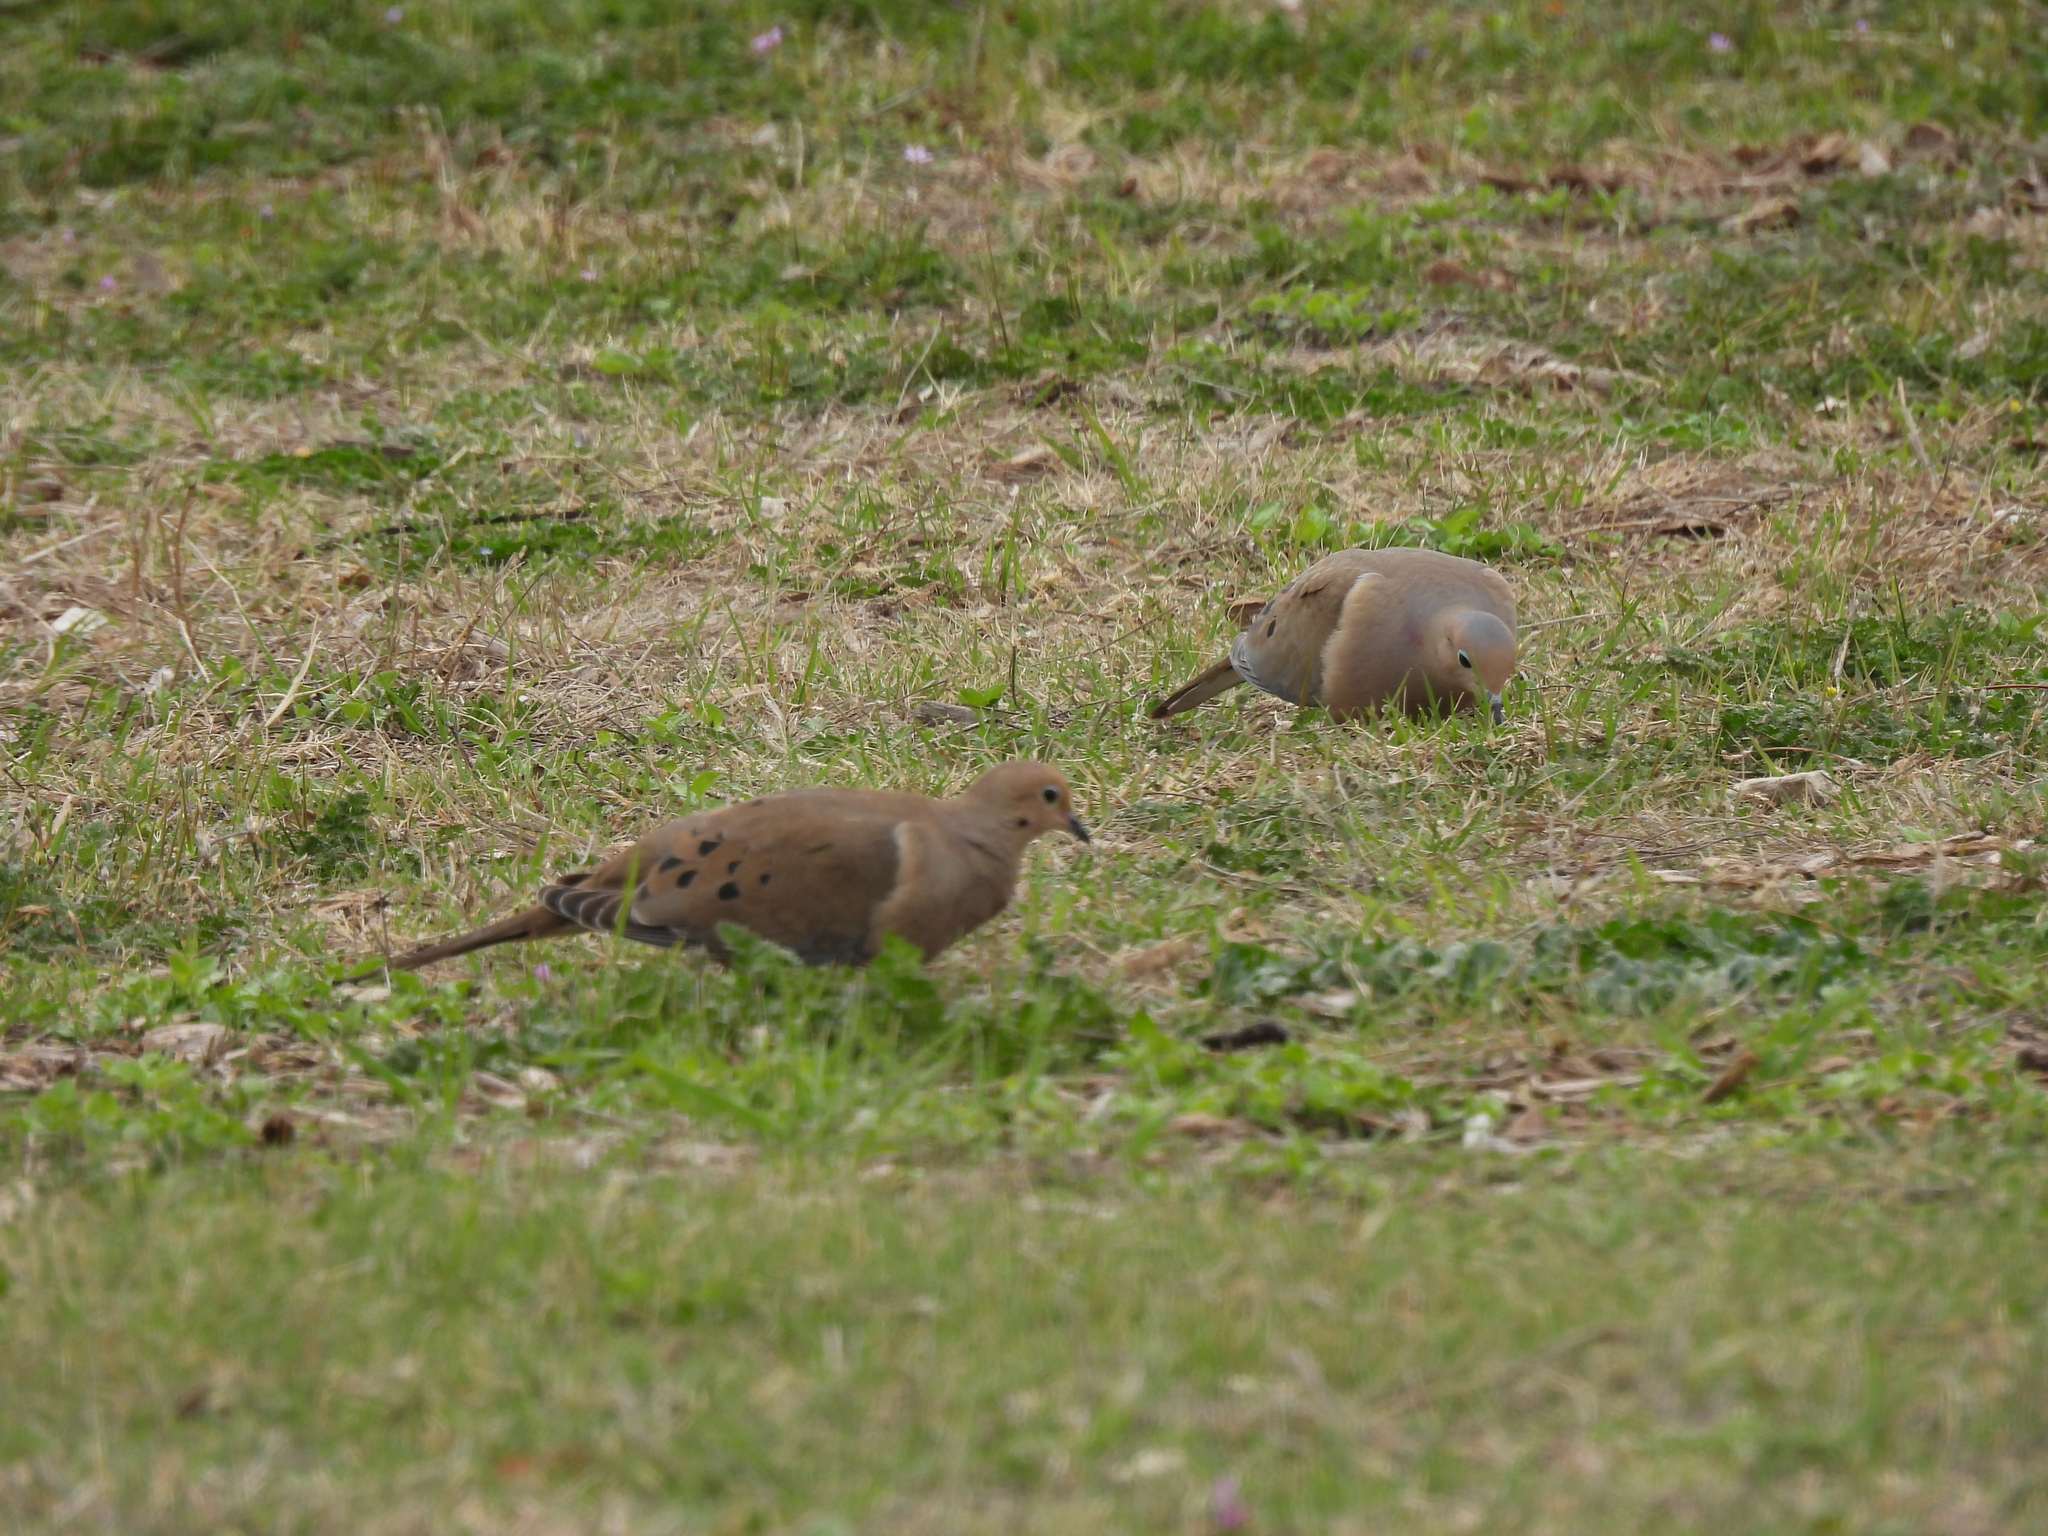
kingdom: Animalia
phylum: Chordata
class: Aves
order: Columbiformes
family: Columbidae
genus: Zenaida
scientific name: Zenaida macroura
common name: Mourning dove
